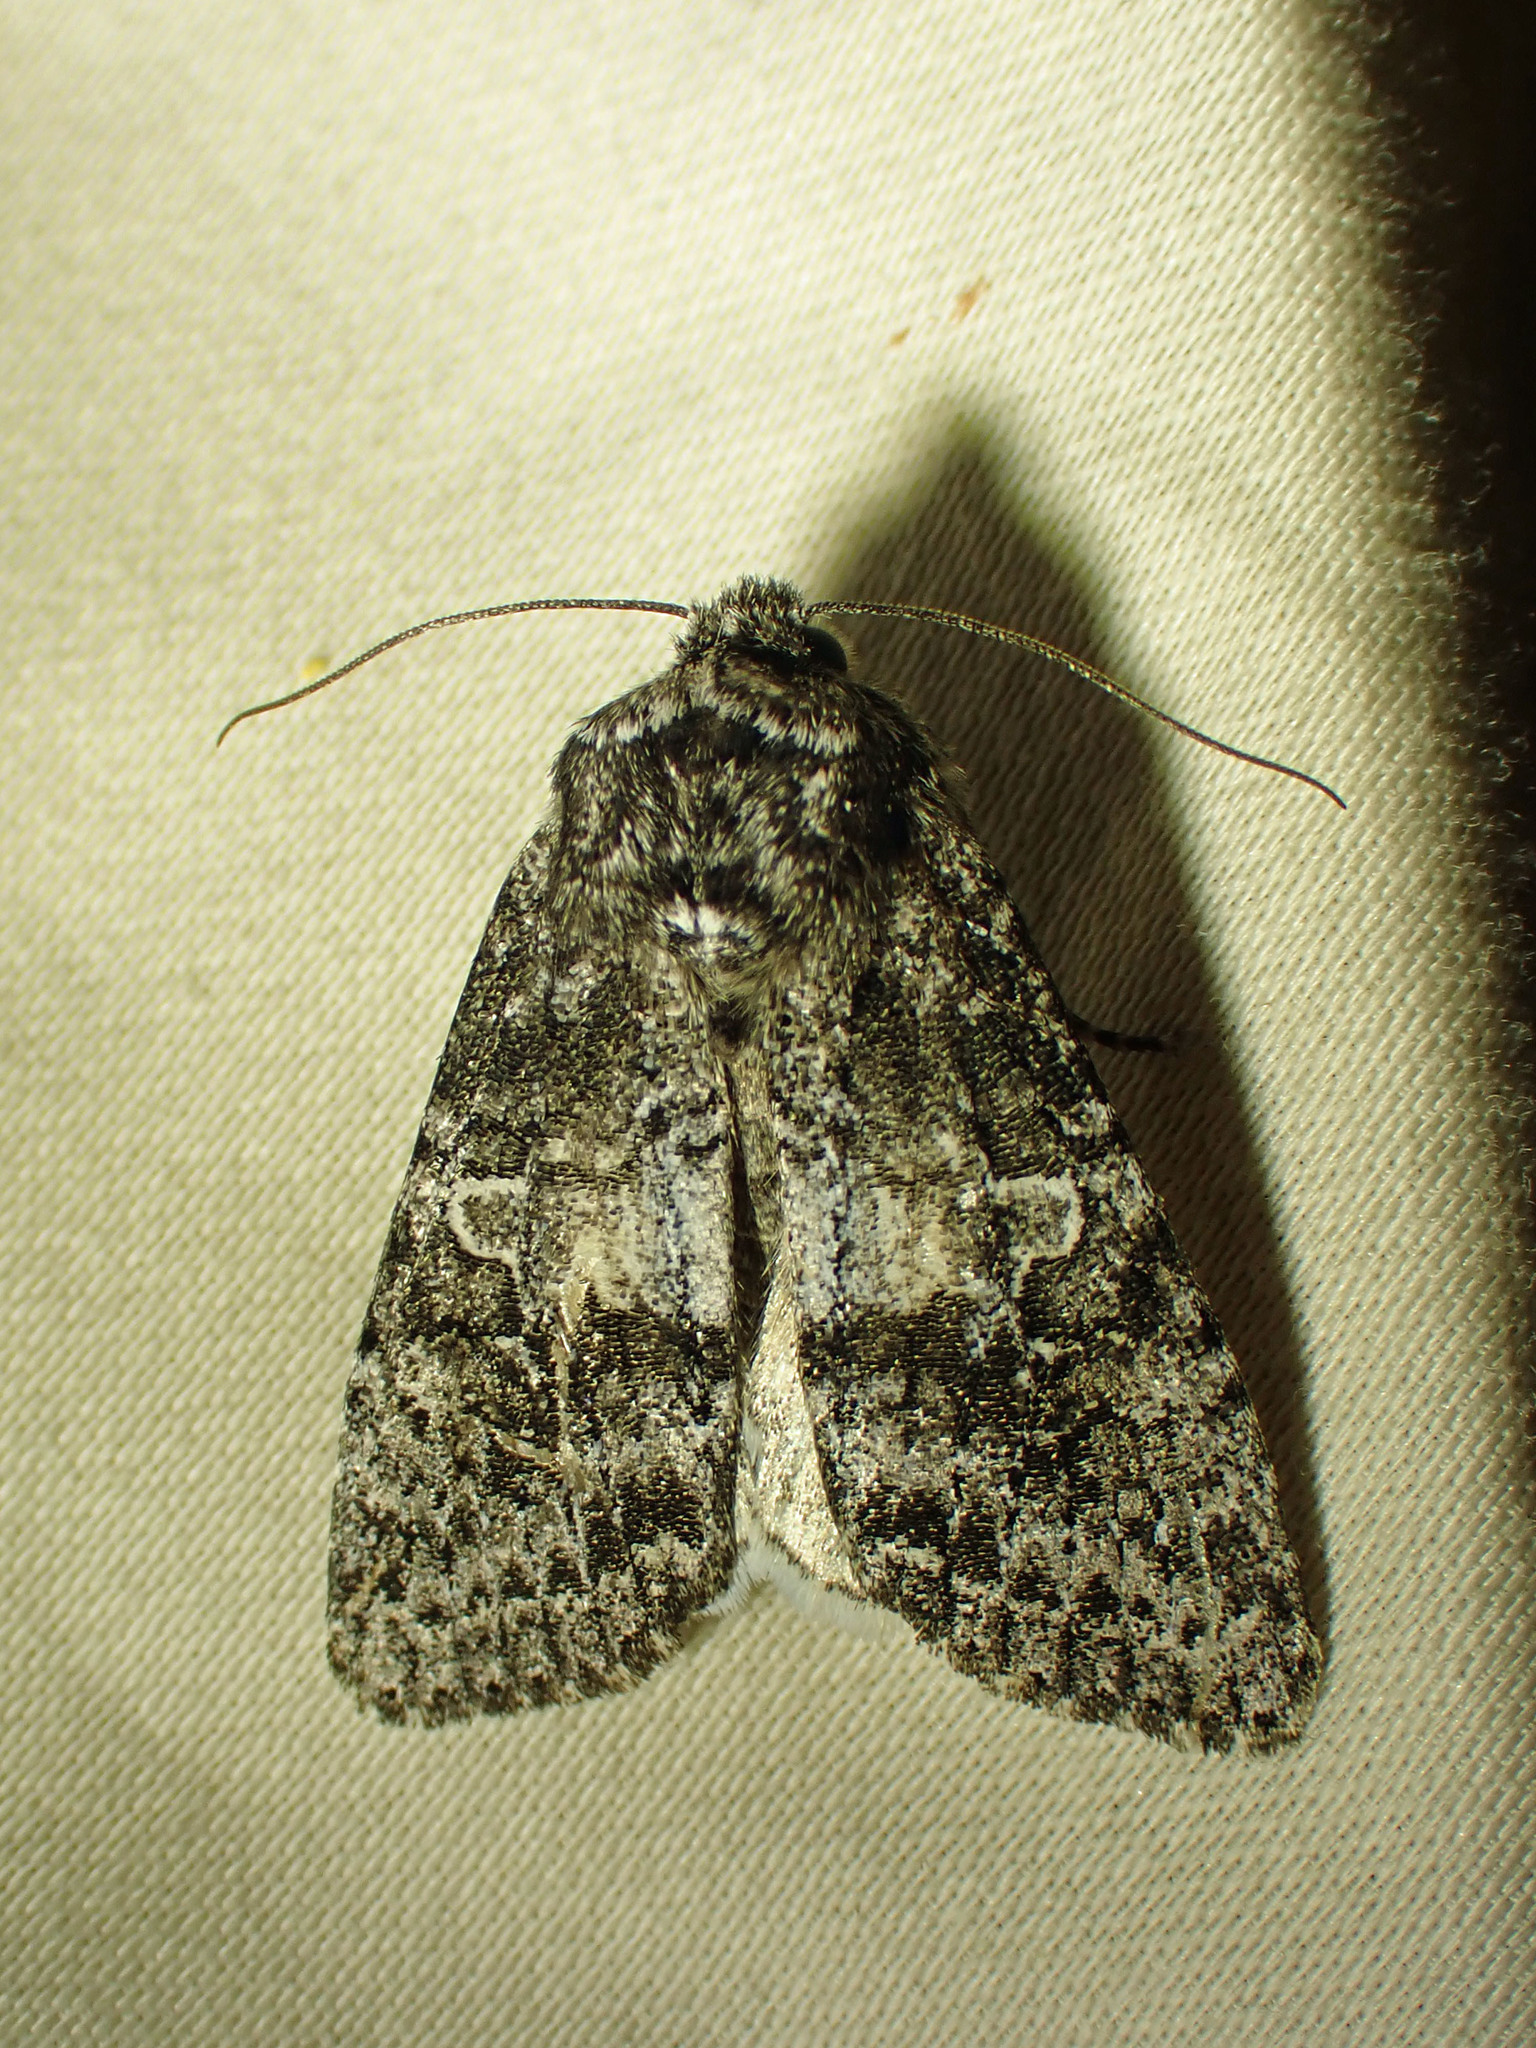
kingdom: Animalia
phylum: Arthropoda
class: Insecta
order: Lepidoptera
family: Noctuidae
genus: Egira
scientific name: Egira dolosa
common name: Lined black aspen cat.
